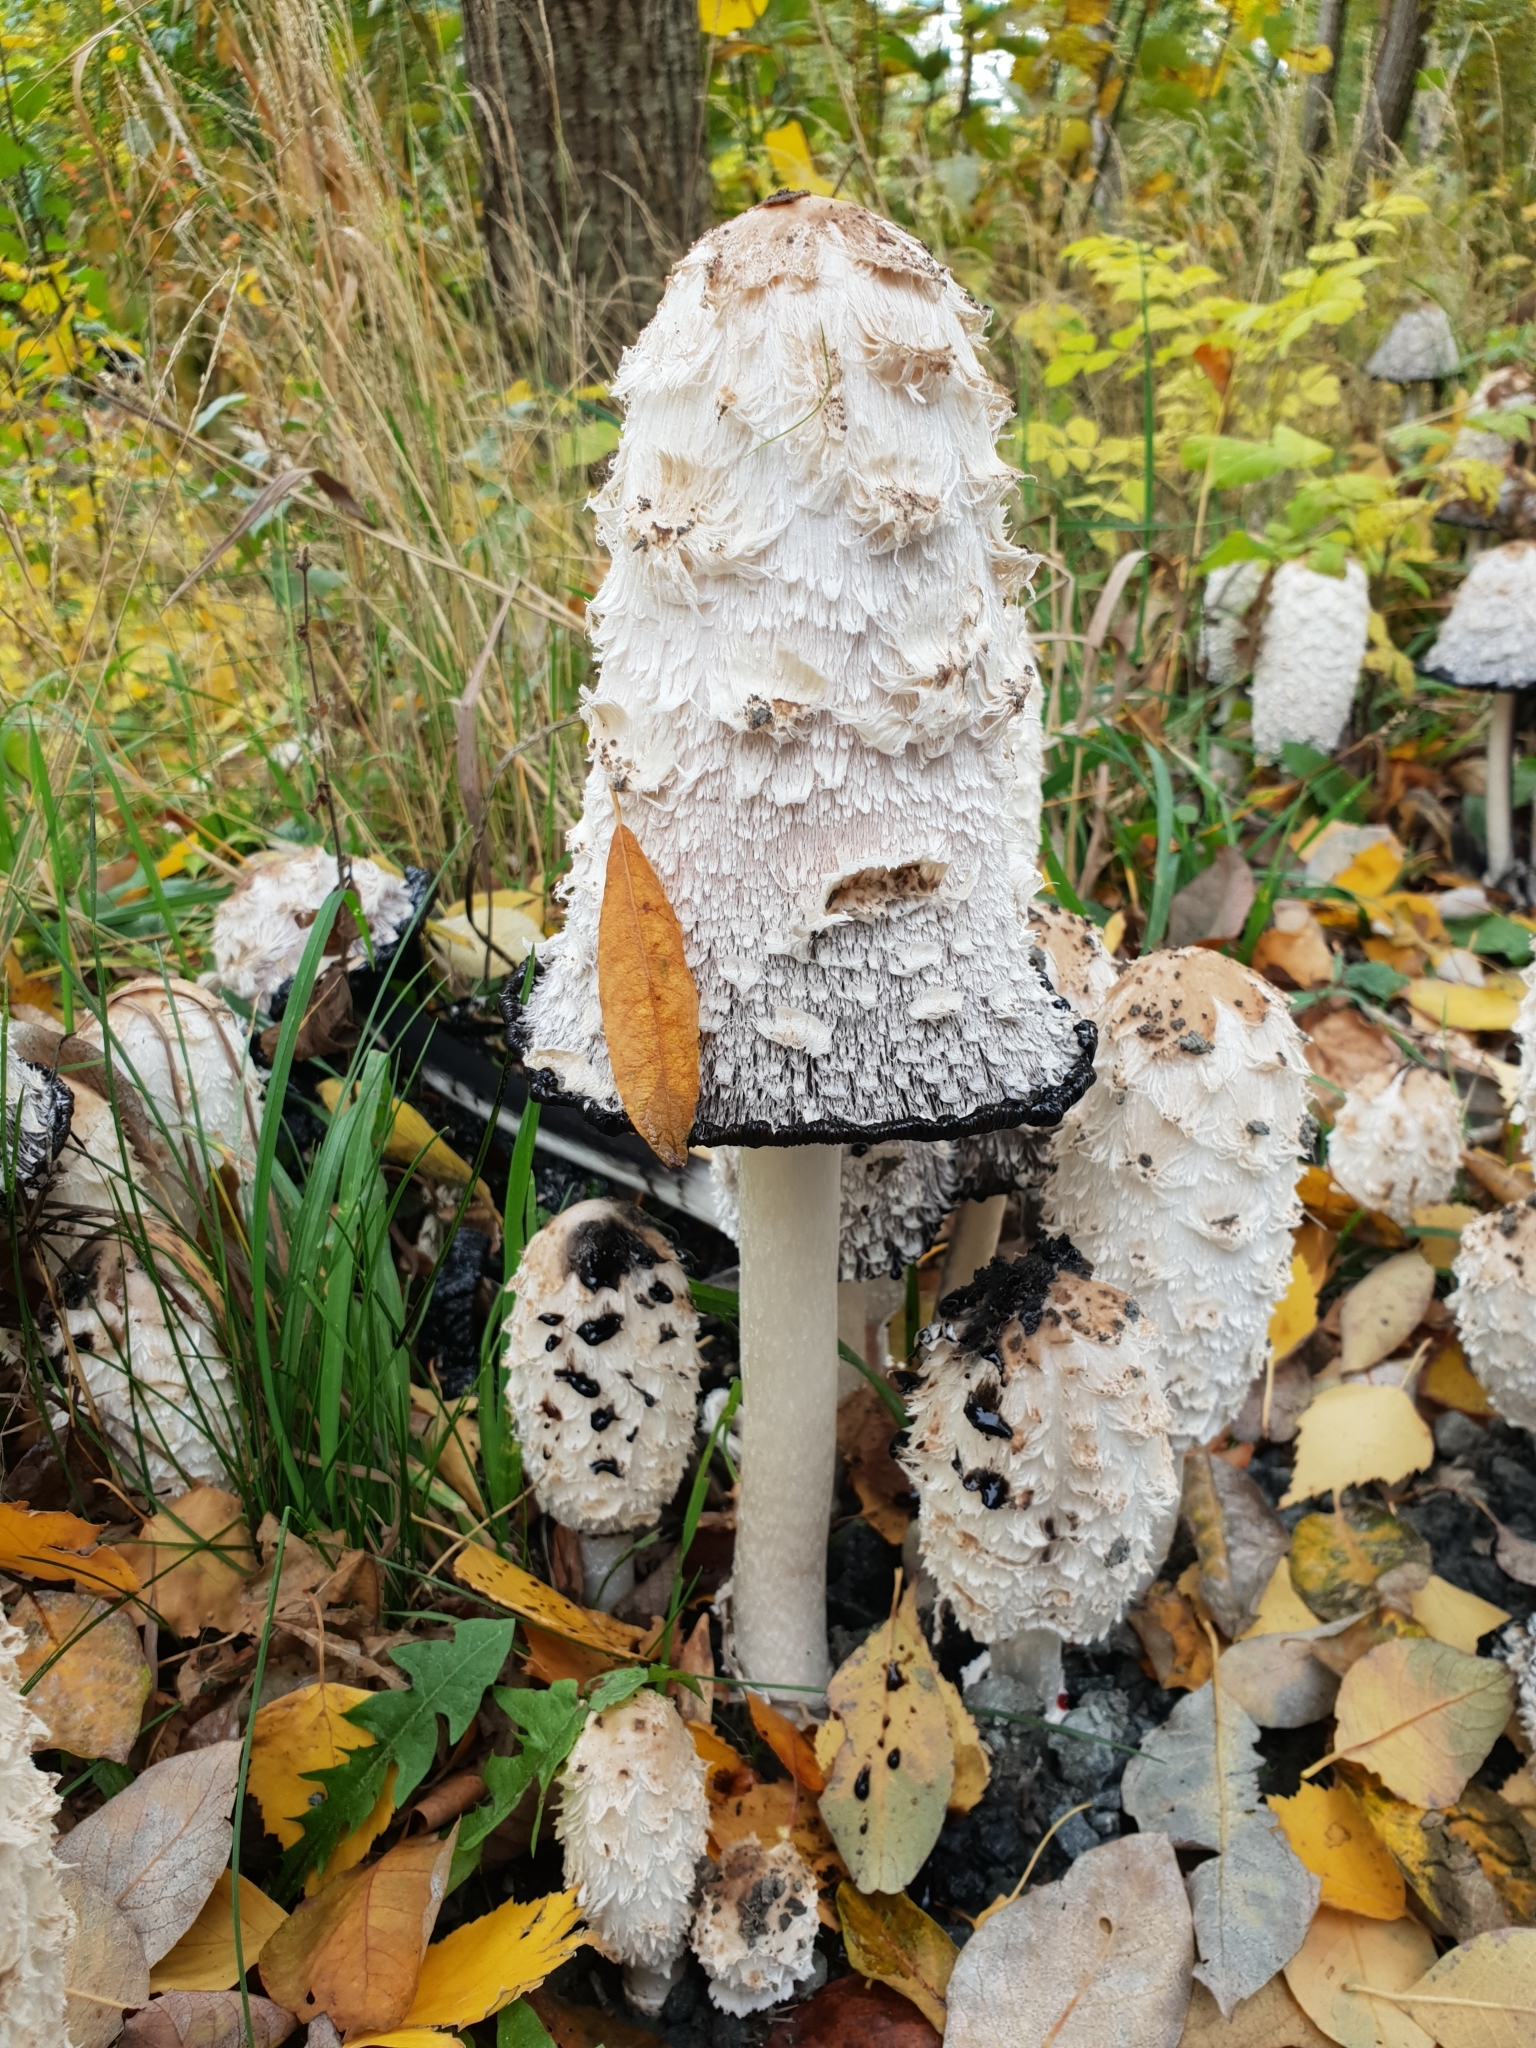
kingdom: Fungi
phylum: Basidiomycota
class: Agaricomycetes
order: Agaricales
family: Agaricaceae
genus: Coprinus
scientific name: Coprinus comatus
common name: Lawyer's wig
